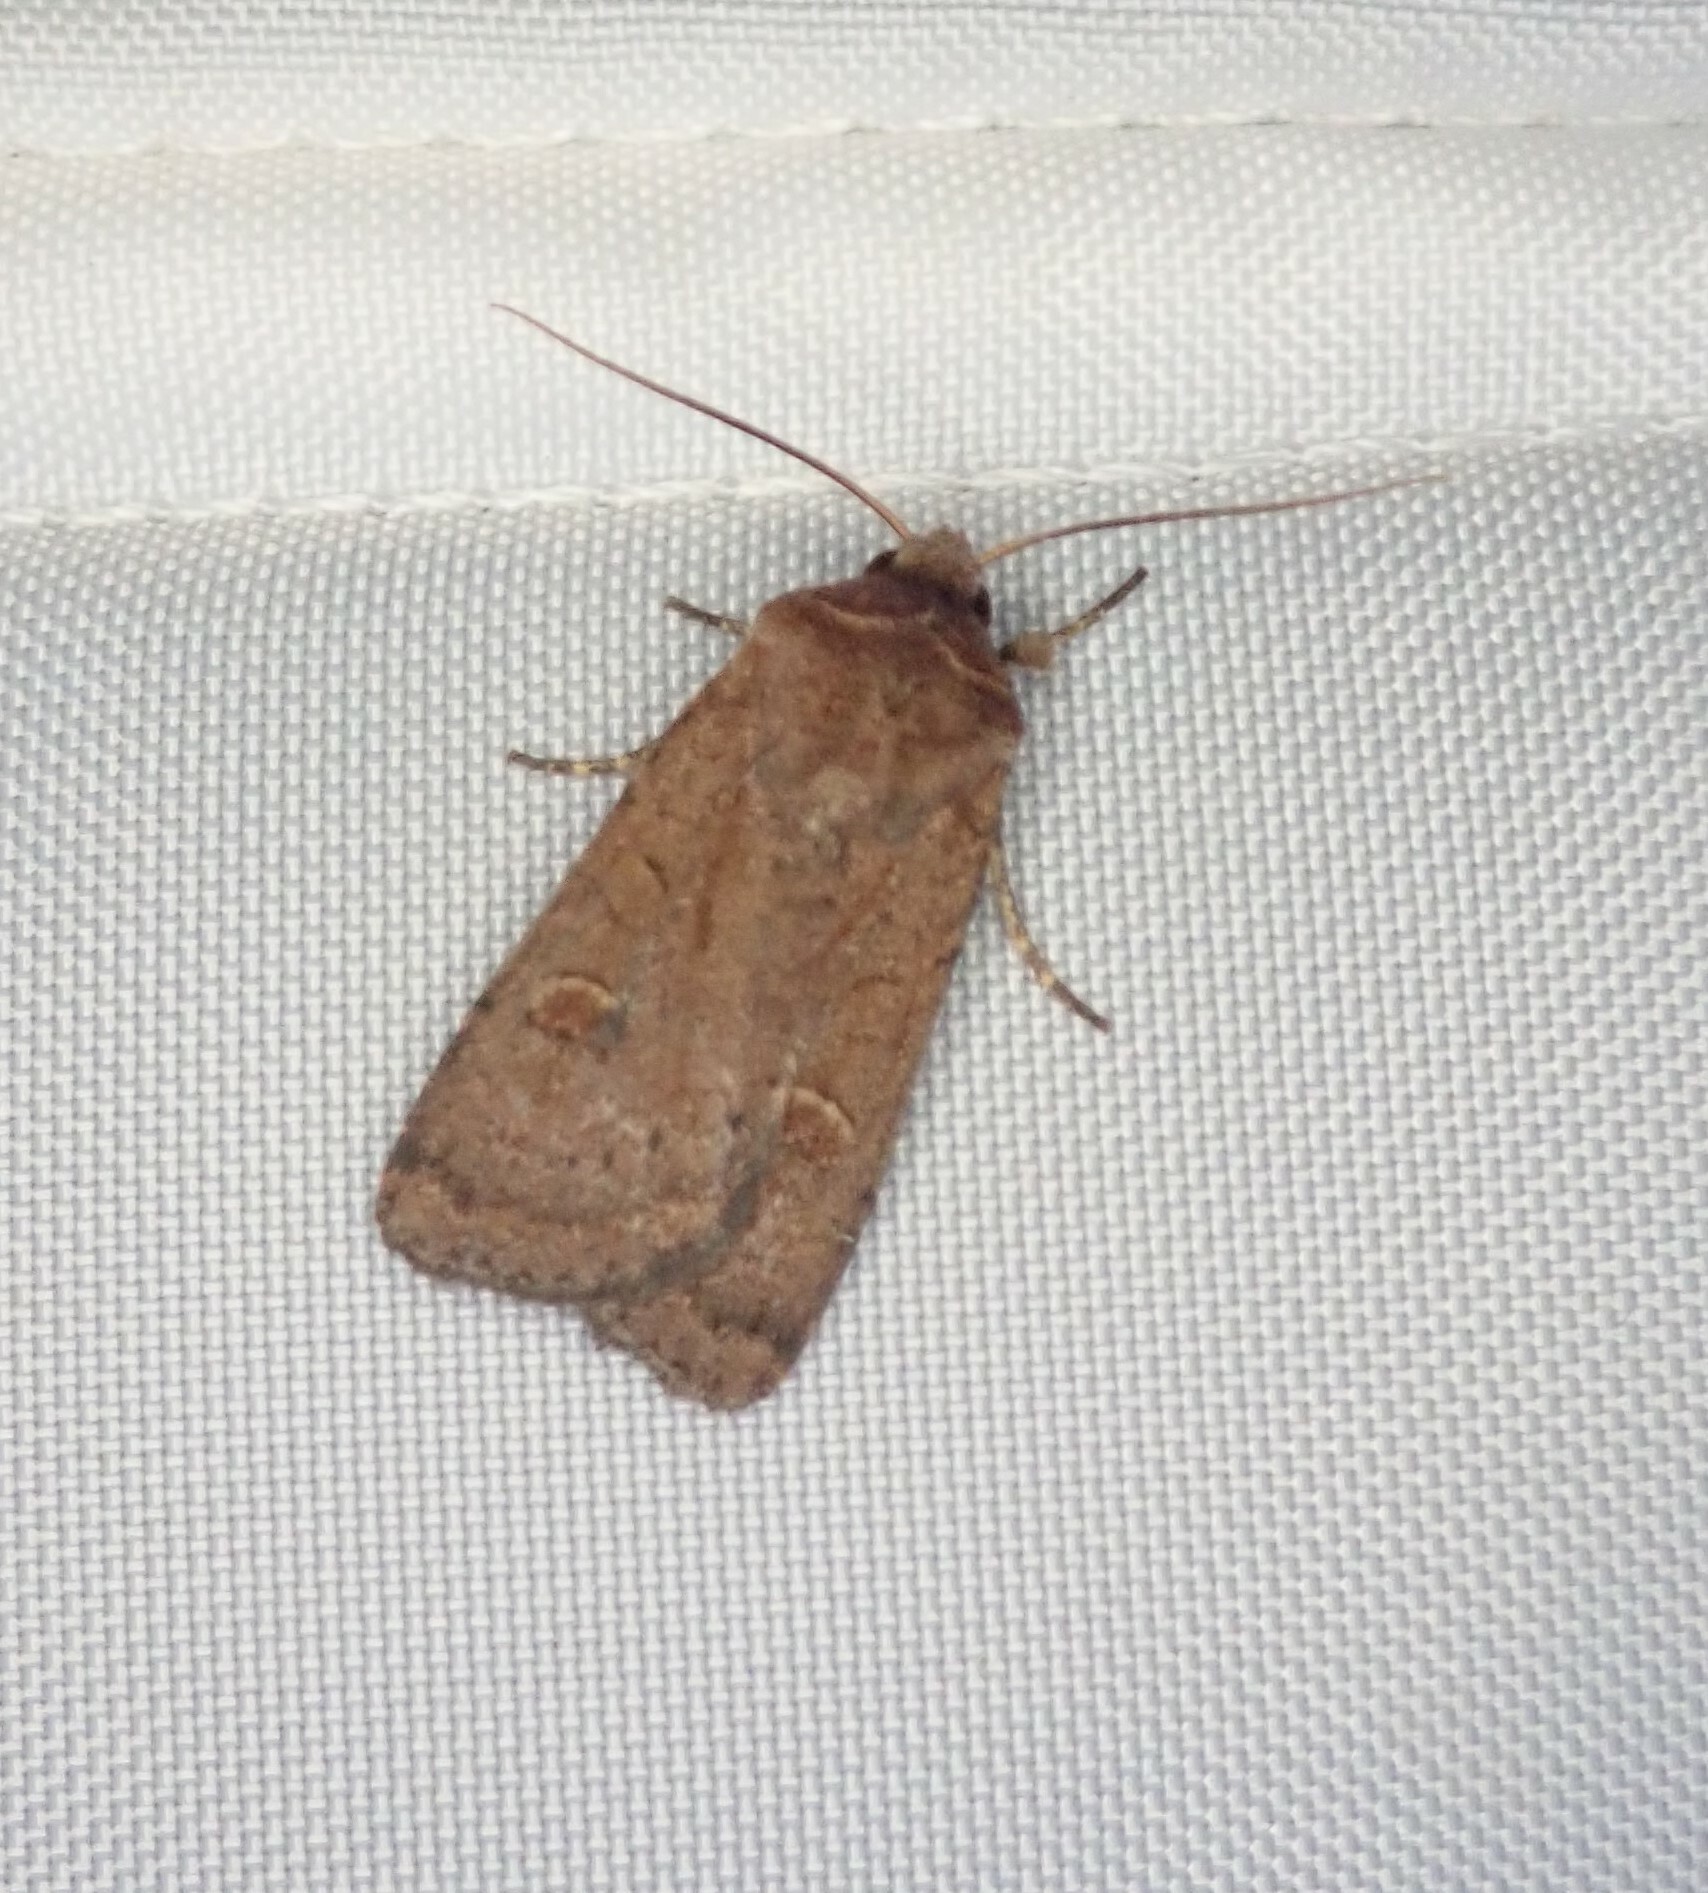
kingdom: Animalia
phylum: Arthropoda
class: Insecta
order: Lepidoptera
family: Noctuidae
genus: Xestia
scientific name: Xestia xanthographa
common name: Square-spot rustic
